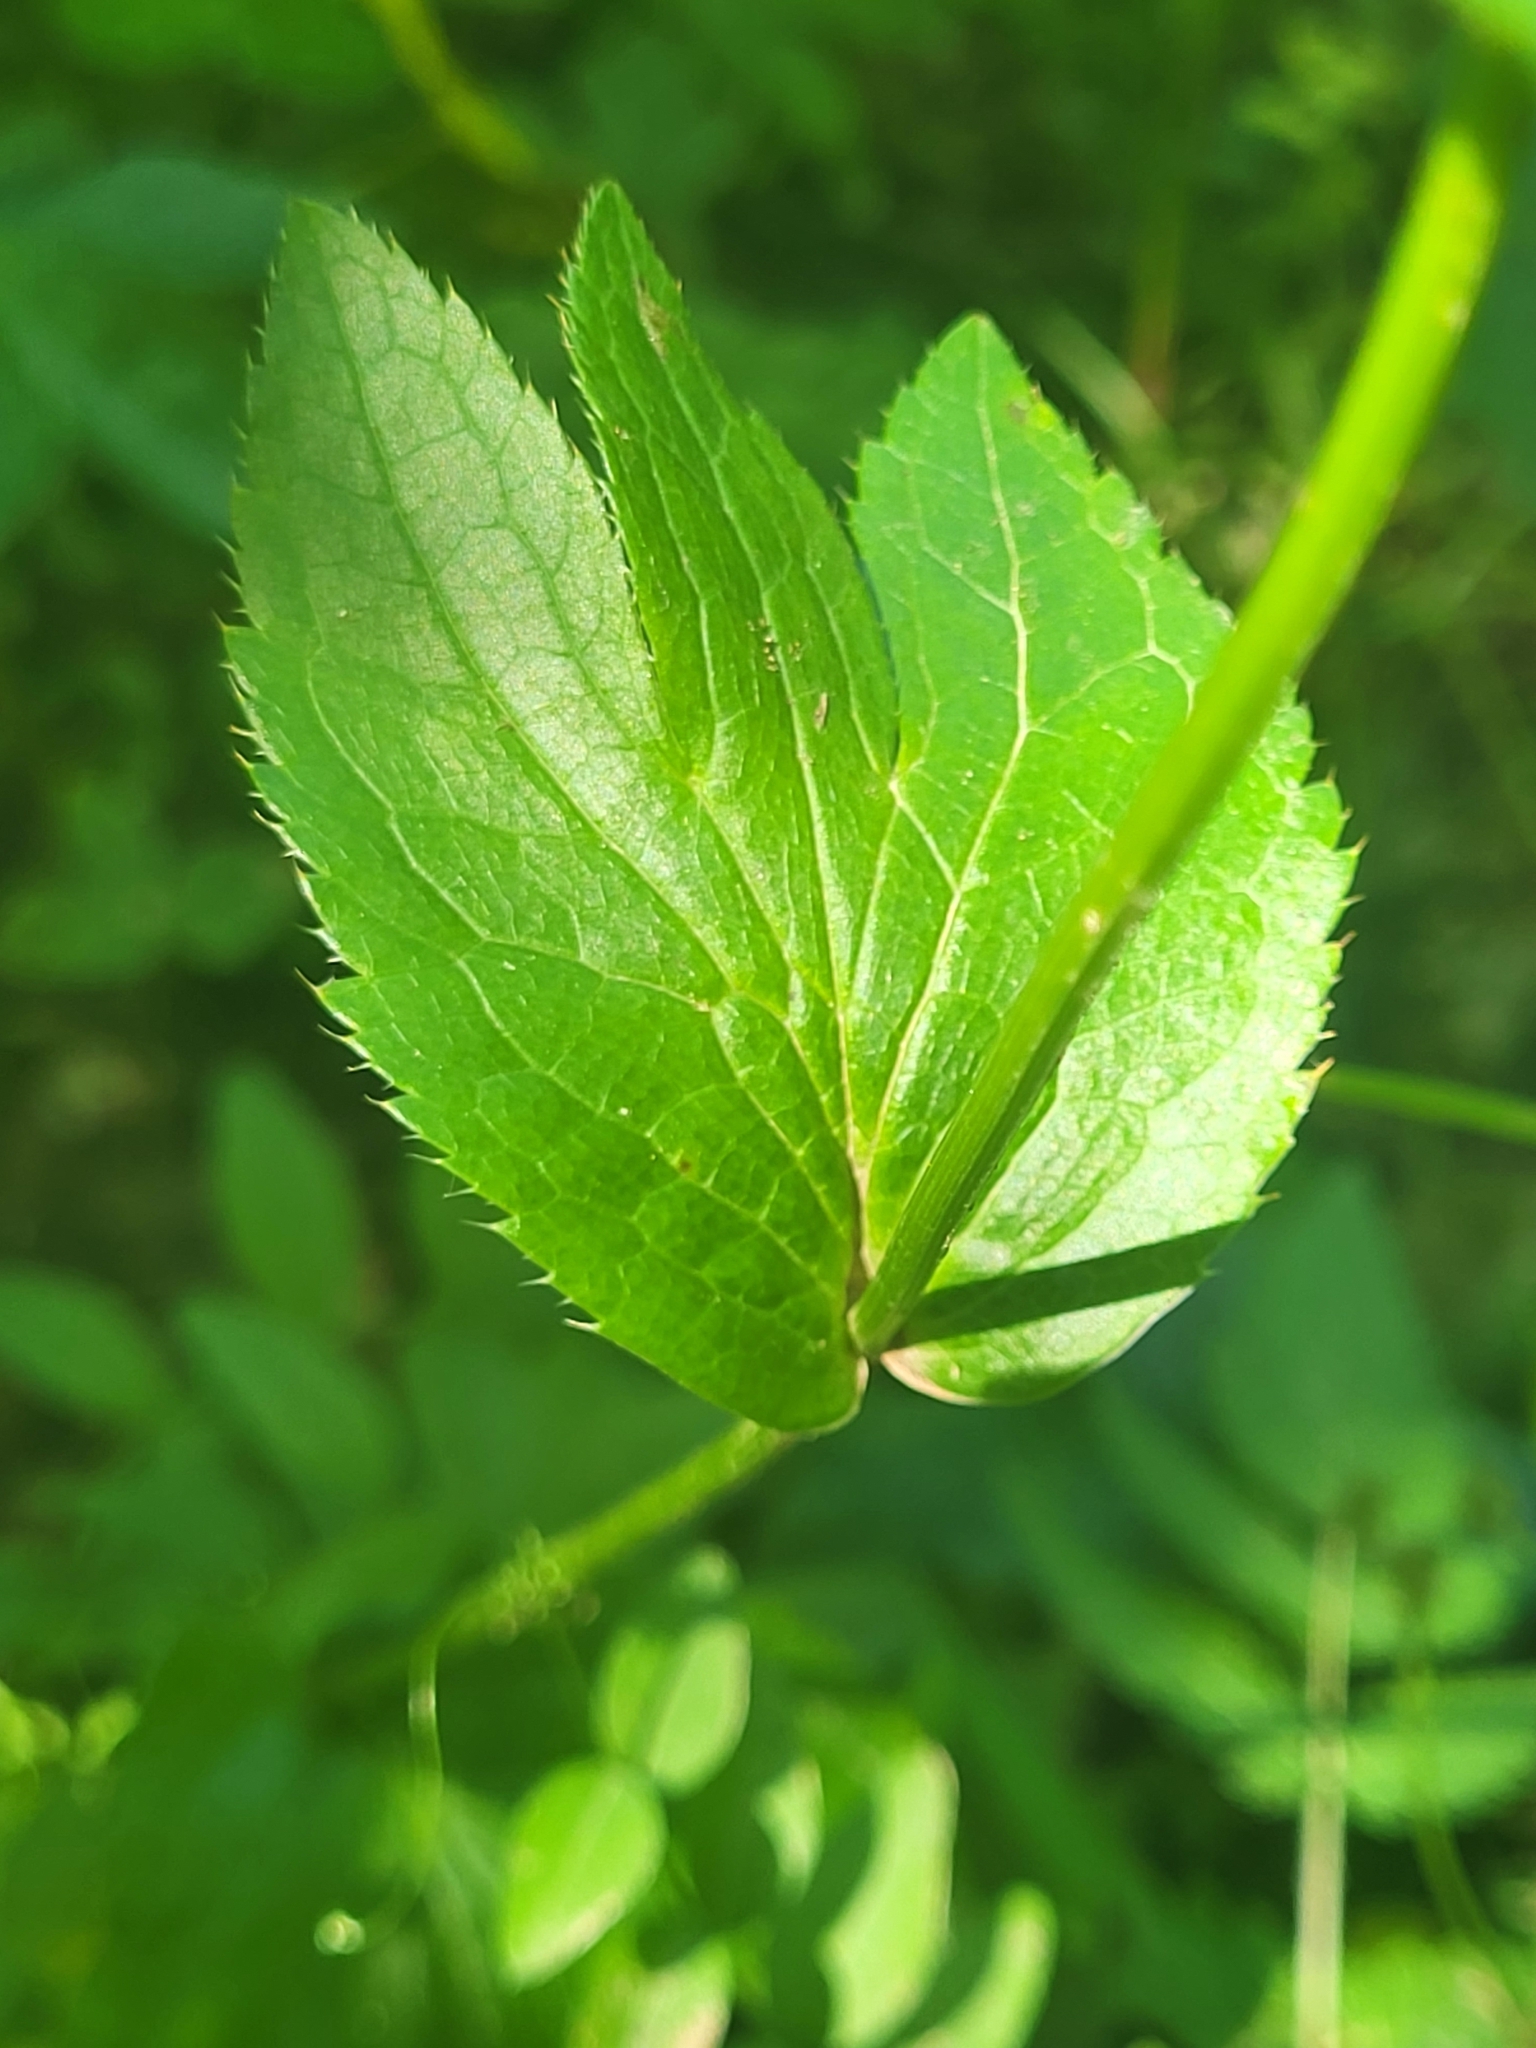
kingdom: Plantae
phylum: Tracheophyta
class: Magnoliopsida
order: Apiales
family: Apiaceae
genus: Astrantia
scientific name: Astrantia maxima
